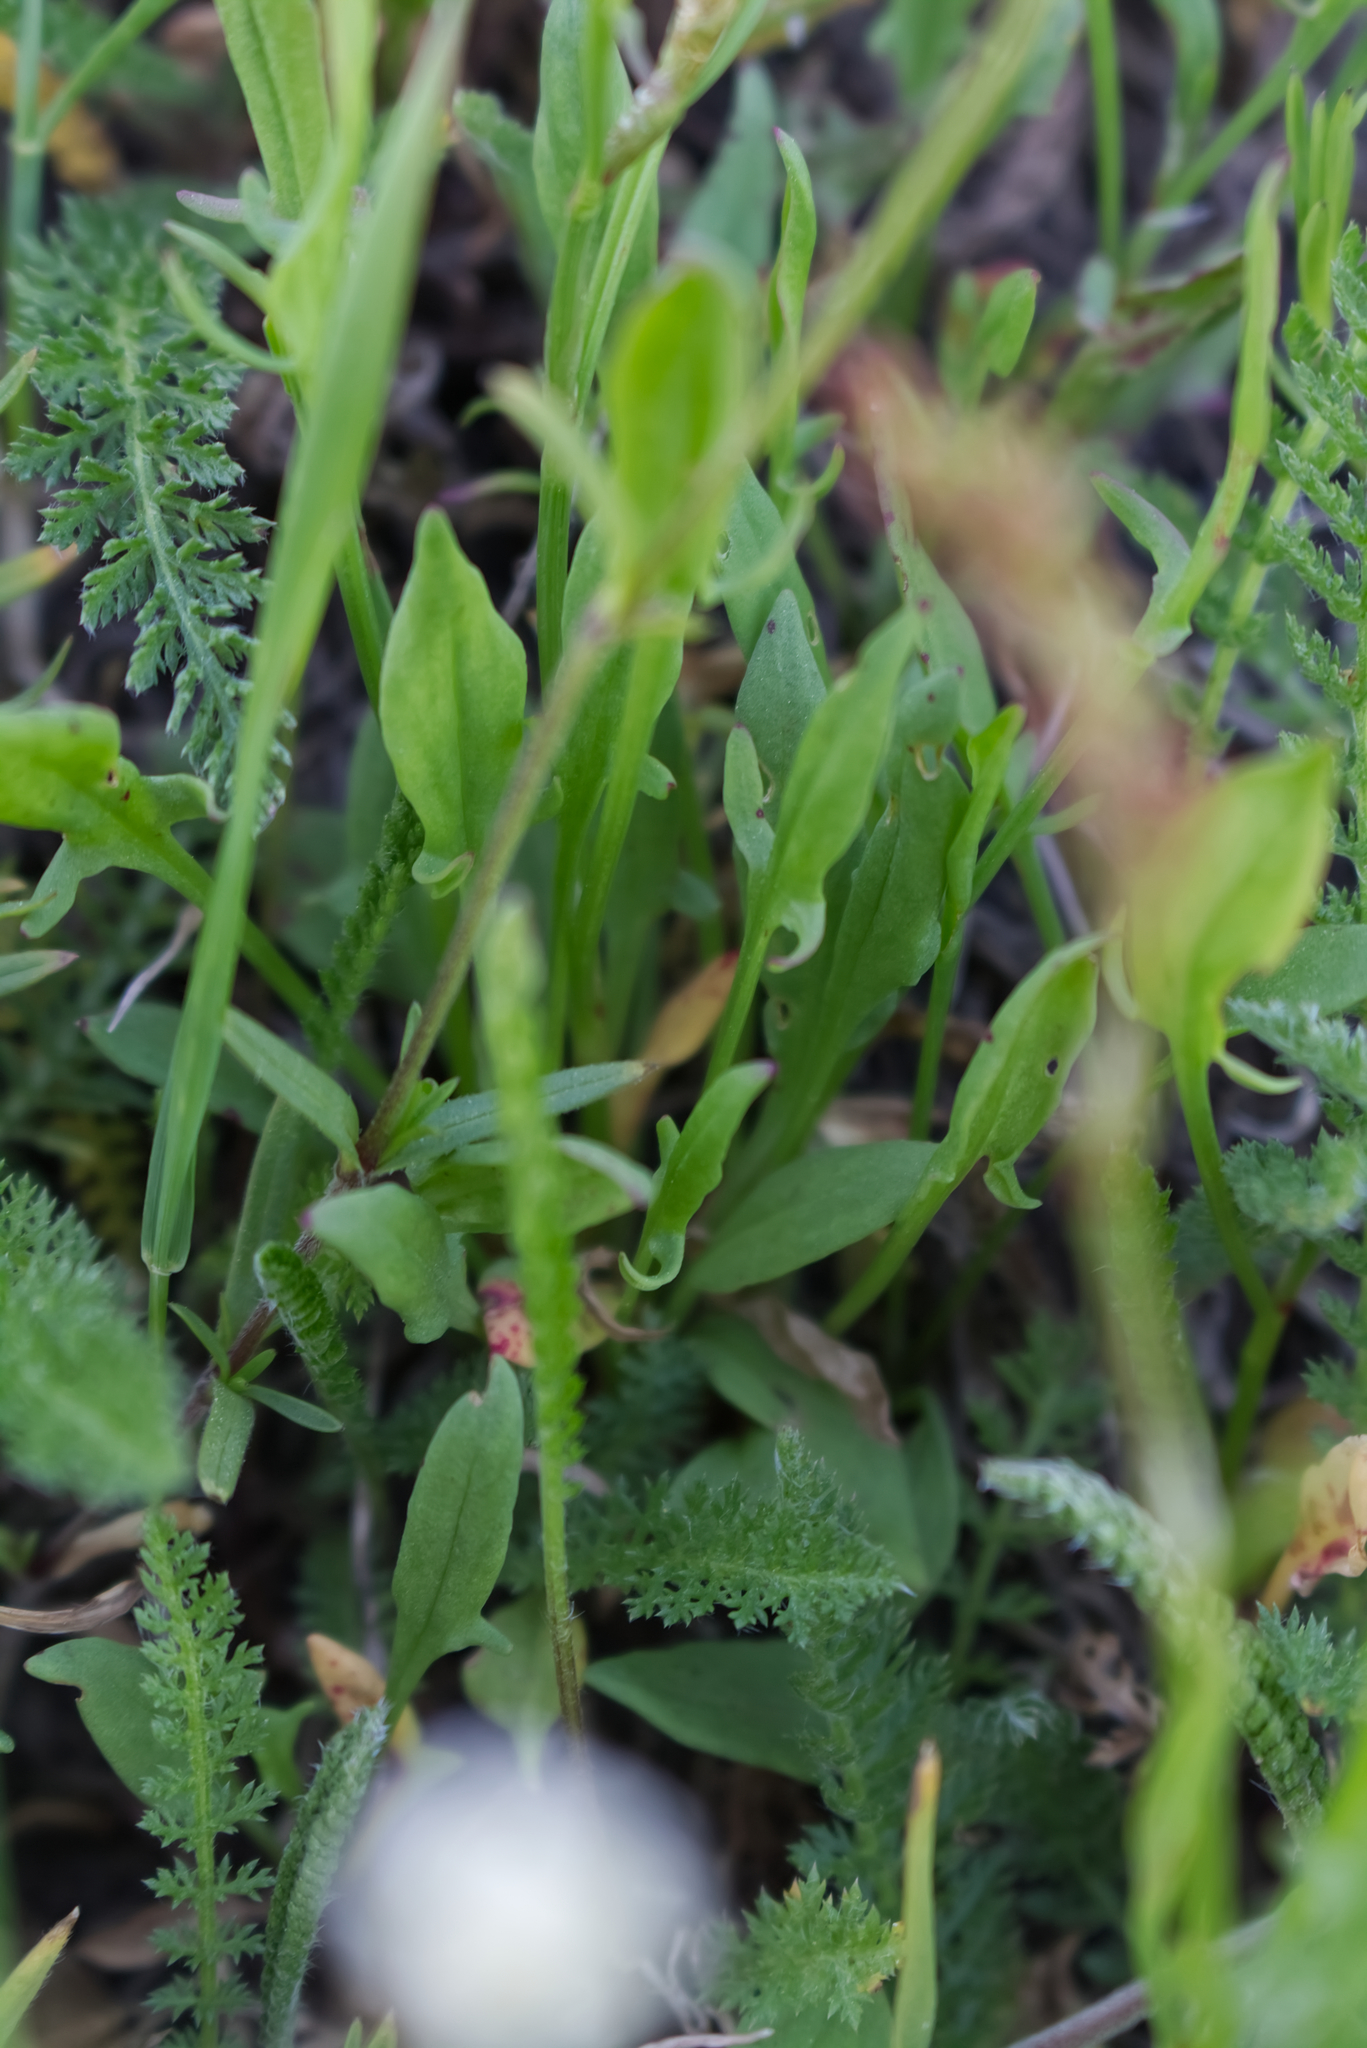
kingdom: Plantae
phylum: Tracheophyta
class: Magnoliopsida
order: Caryophyllales
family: Polygonaceae
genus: Rumex
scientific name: Rumex acetosella
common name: Common sheep sorrel
